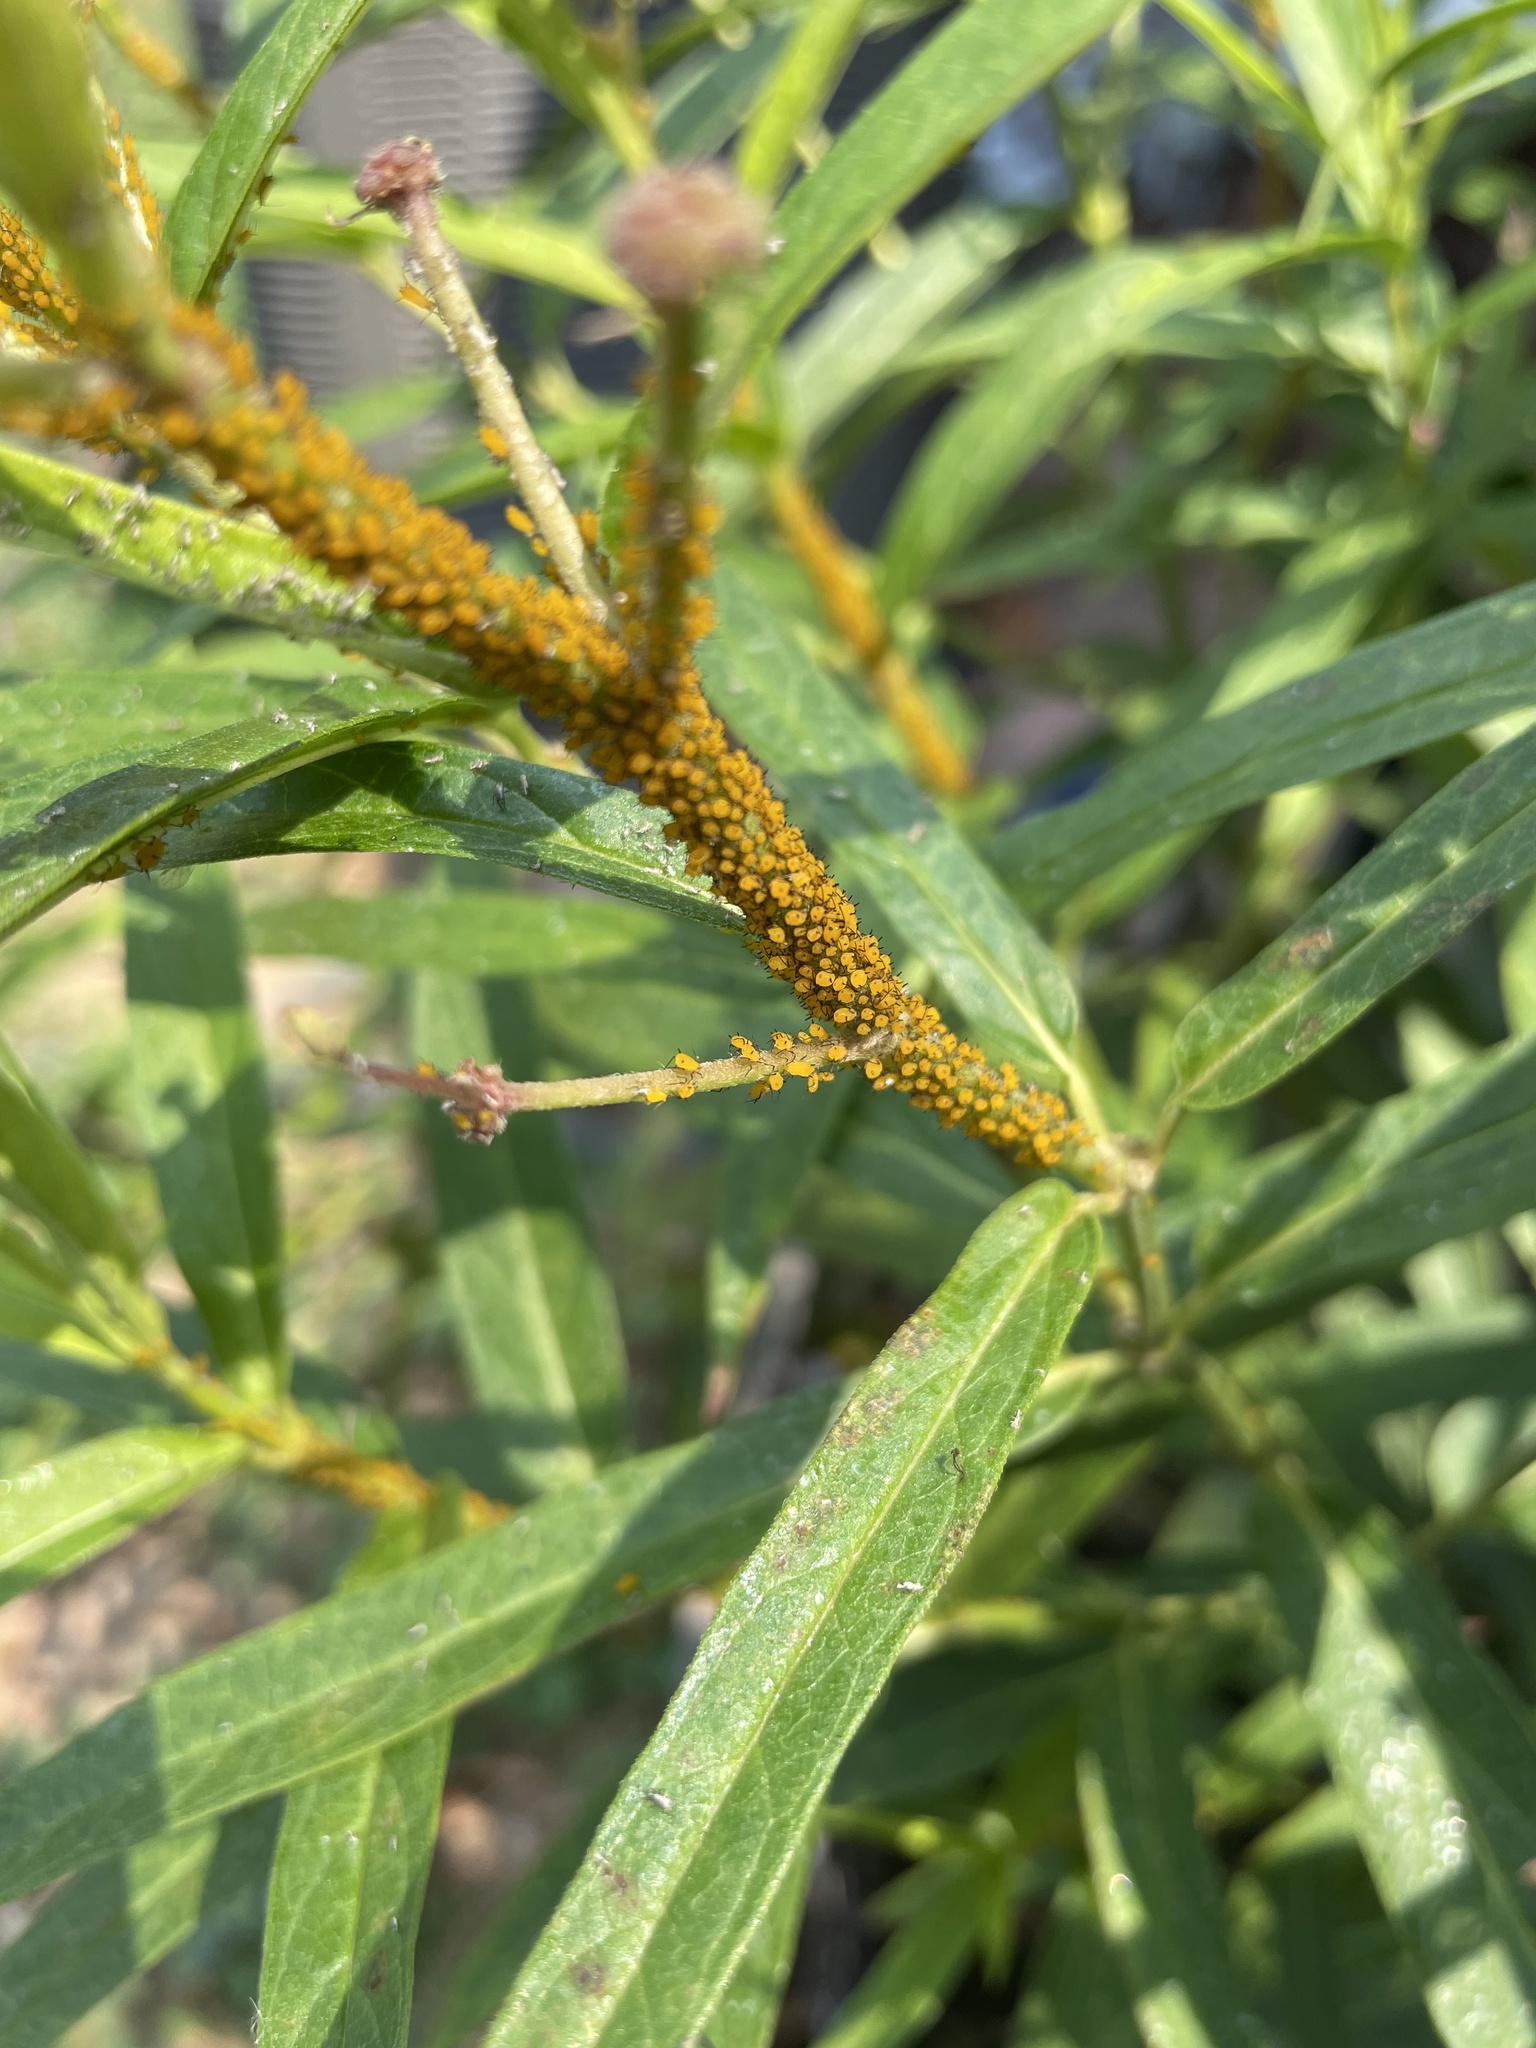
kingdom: Animalia
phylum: Arthropoda
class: Insecta
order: Hemiptera
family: Aphididae
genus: Aphis
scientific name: Aphis nerii
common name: Oleander aphid
